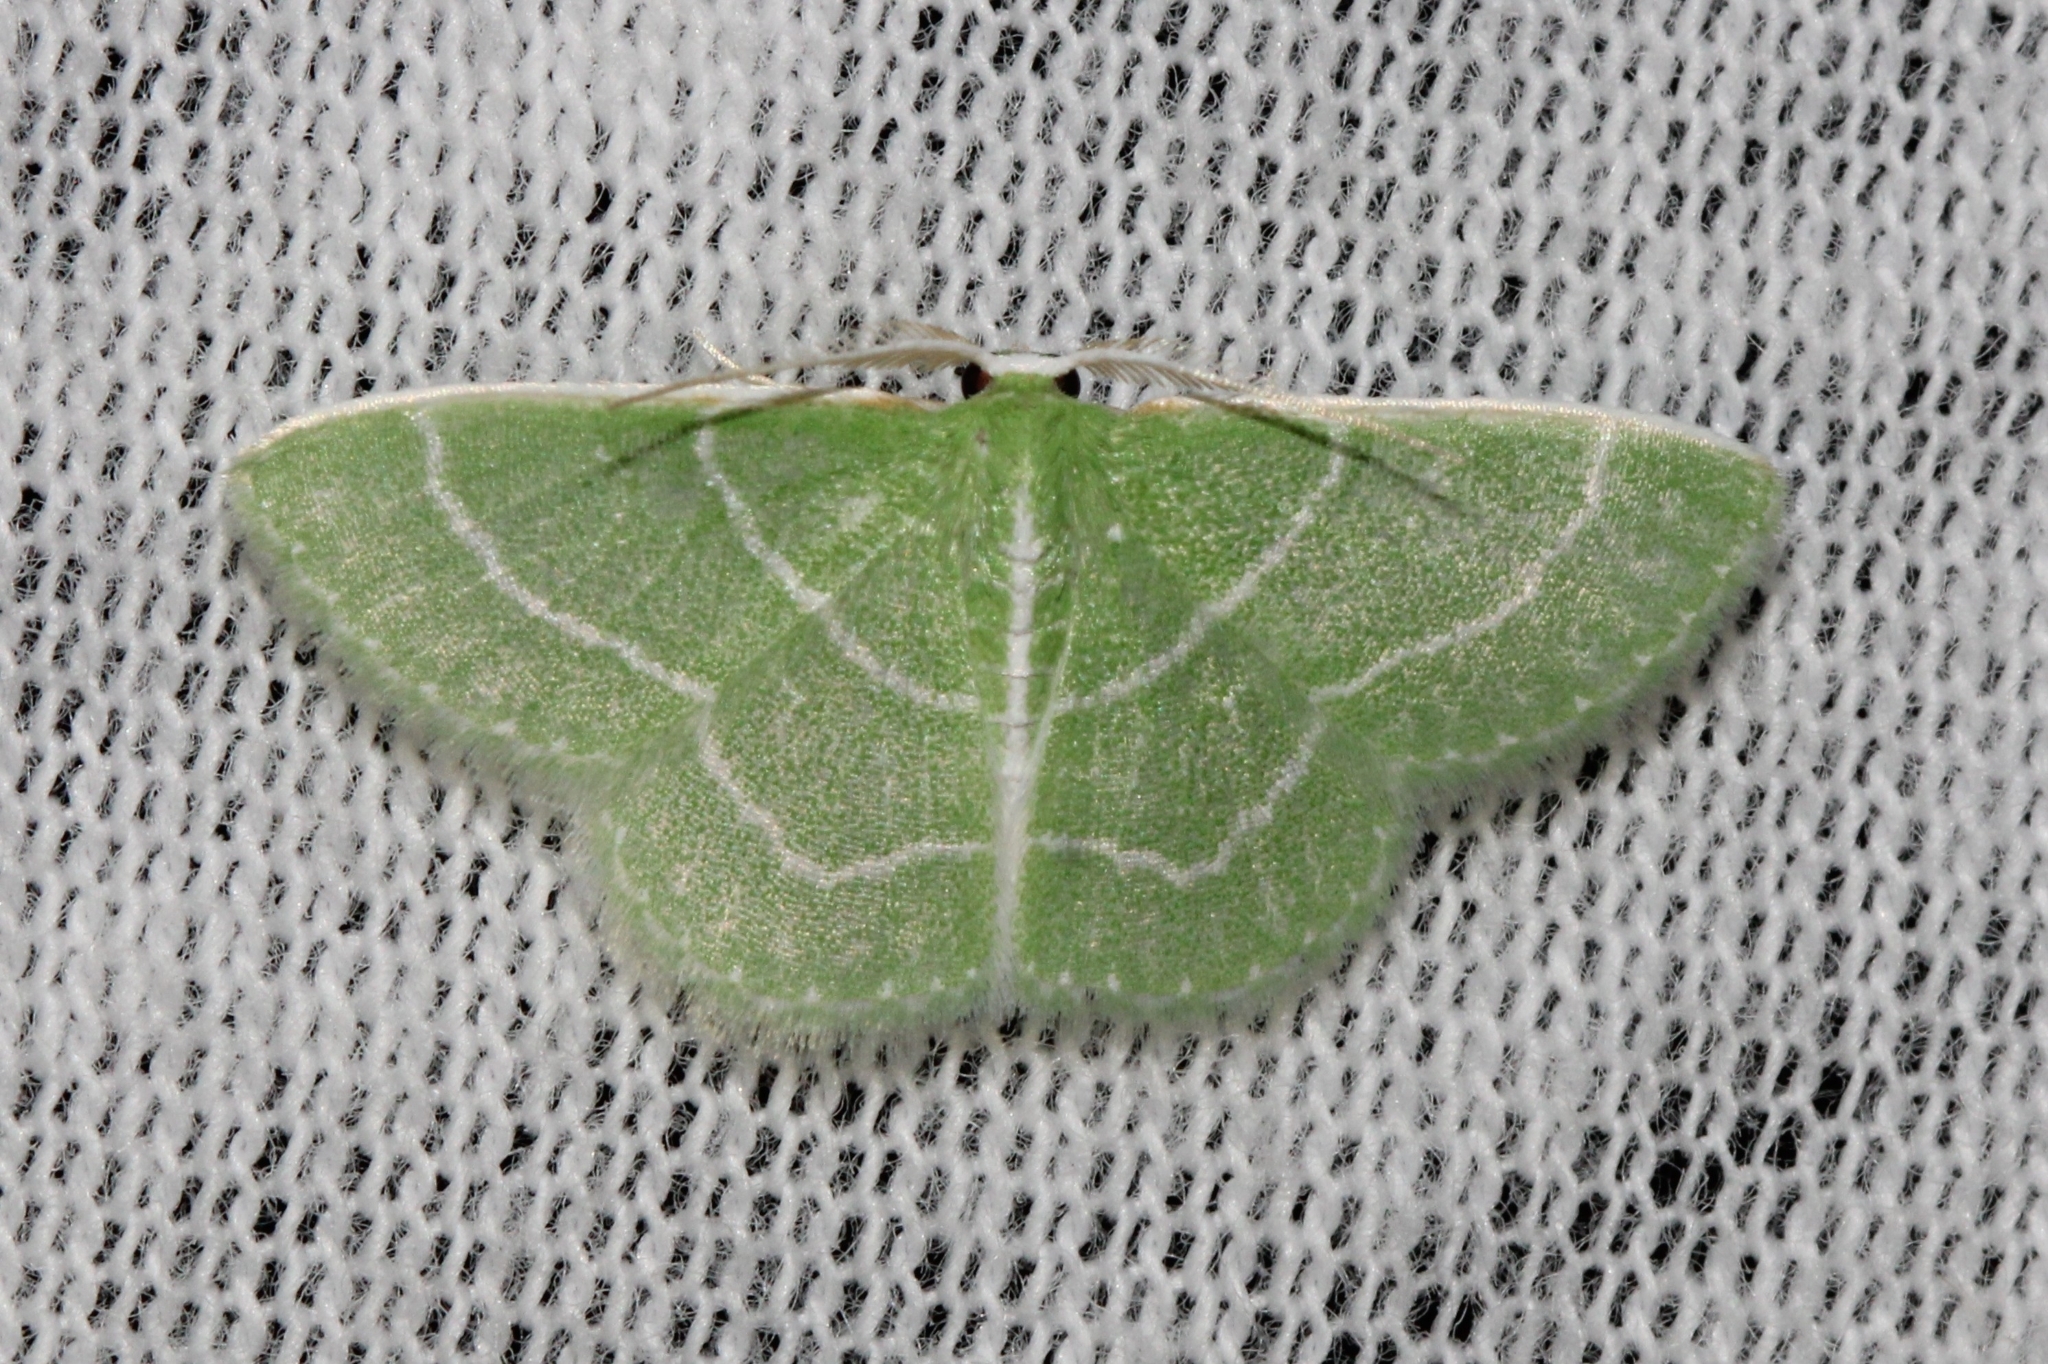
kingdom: Animalia
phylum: Arthropoda
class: Insecta
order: Lepidoptera
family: Geometridae
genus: Synchlora
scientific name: Synchlora aerata
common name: Wavy-lined emerald
